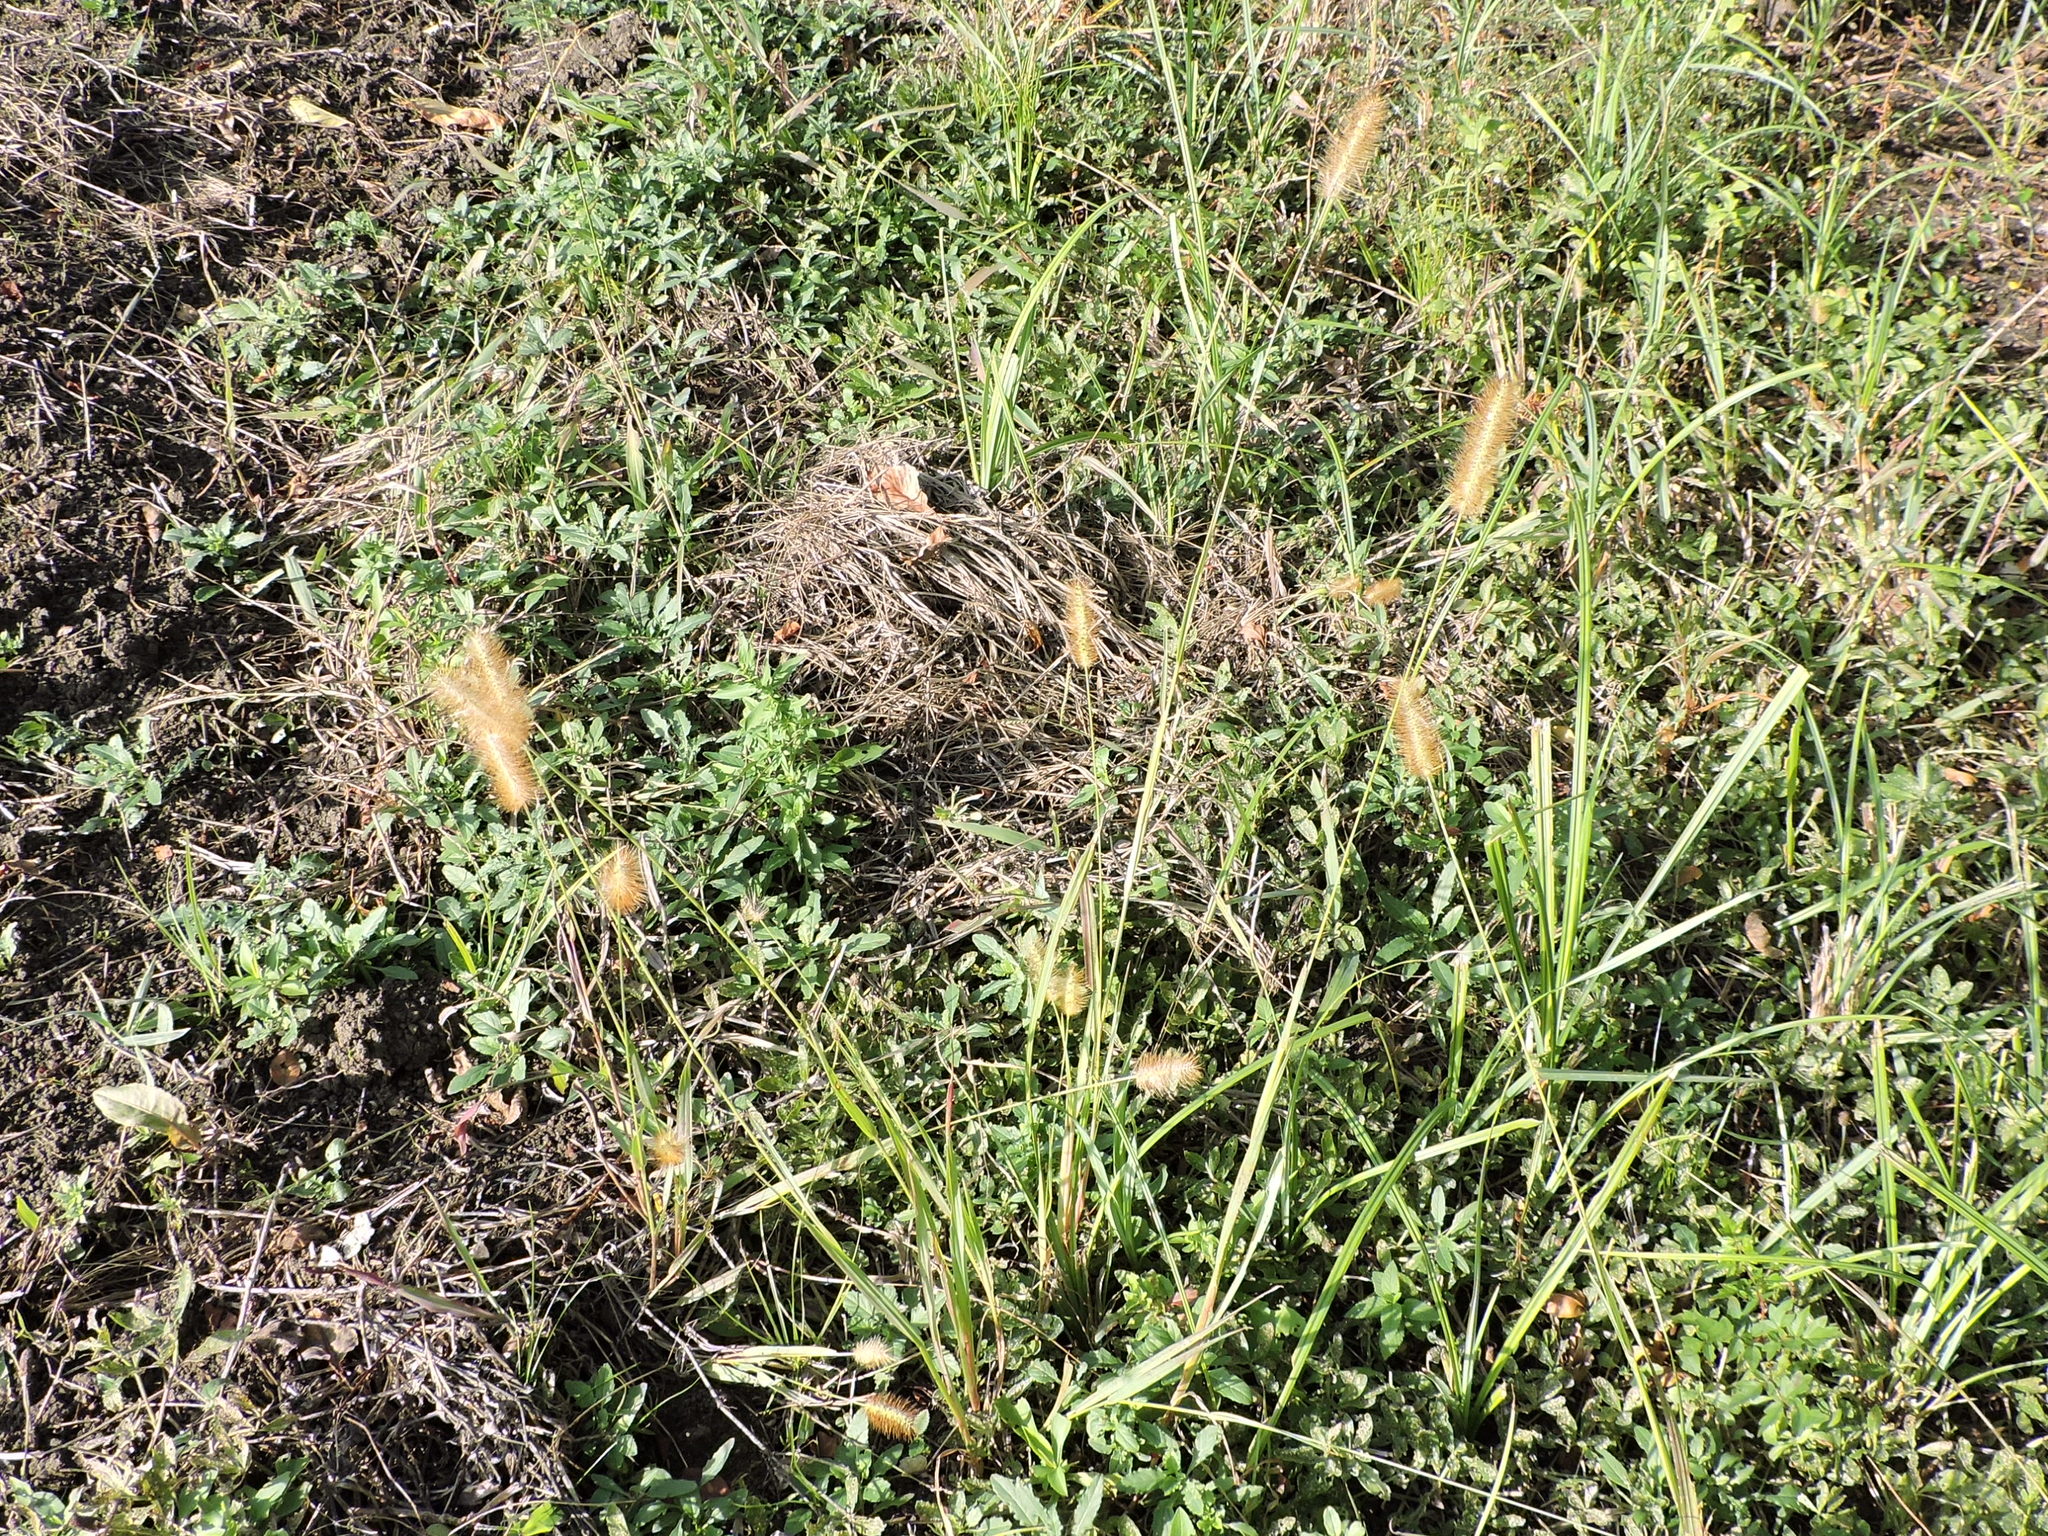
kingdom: Plantae
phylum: Tracheophyta
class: Liliopsida
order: Poales
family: Poaceae
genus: Setaria
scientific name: Setaria parviflora
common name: Knotroot bristle-grass
